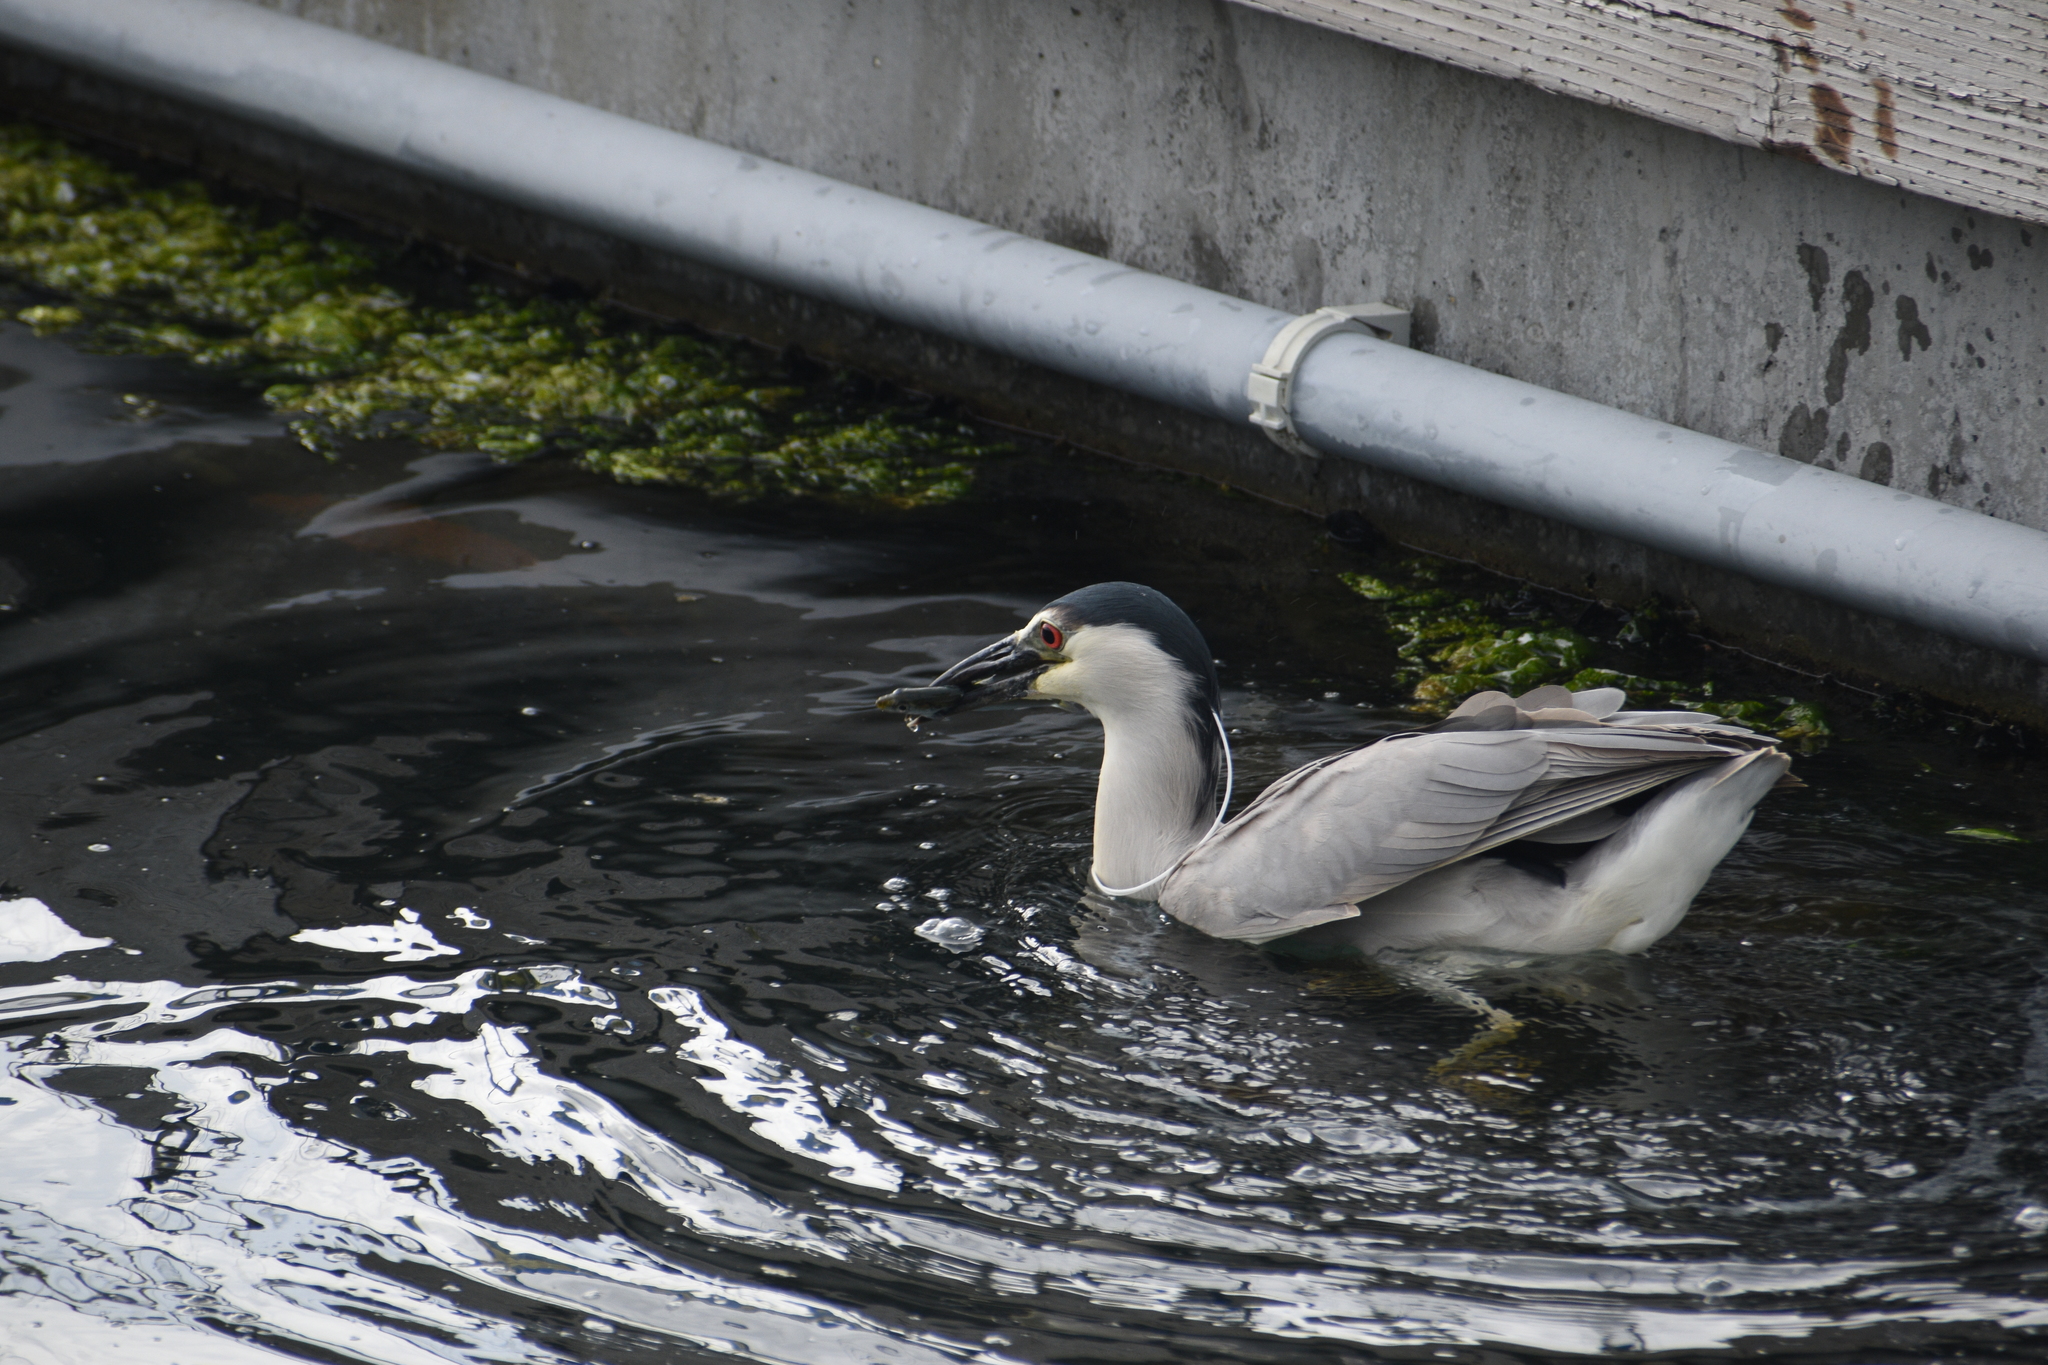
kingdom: Animalia
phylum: Chordata
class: Aves
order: Pelecaniformes
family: Ardeidae
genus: Nycticorax
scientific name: Nycticorax nycticorax
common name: Black-crowned night heron
